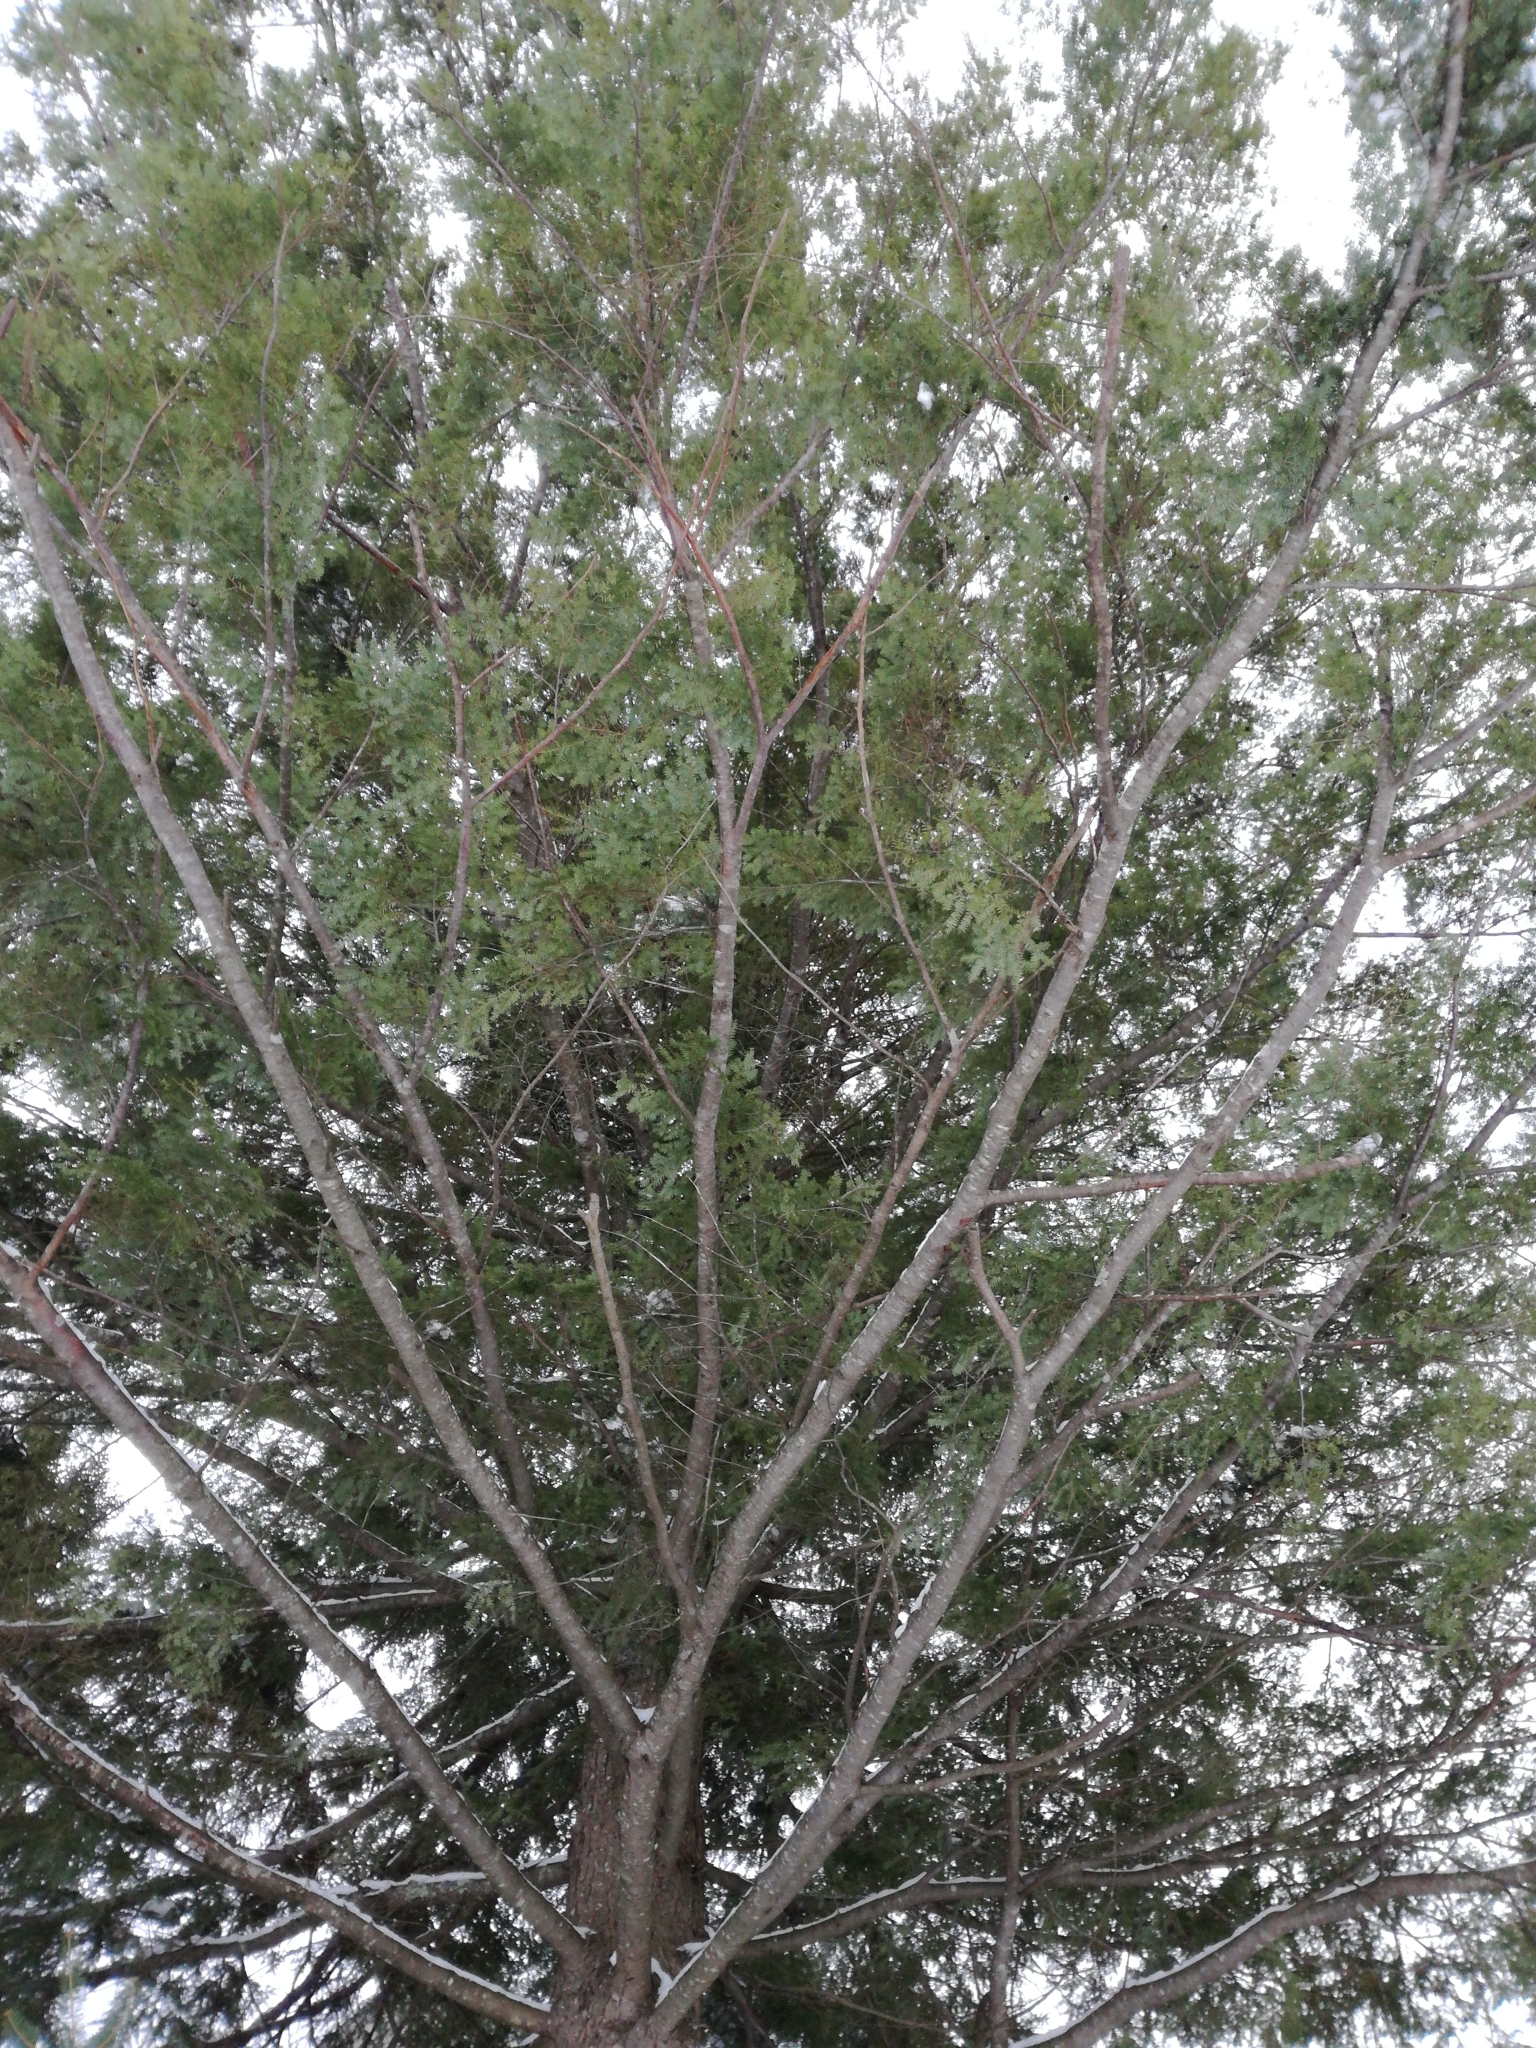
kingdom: Plantae
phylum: Tracheophyta
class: Pinopsida
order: Pinales
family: Pinaceae
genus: Tsuga
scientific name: Tsuga canadensis
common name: Eastern hemlock
